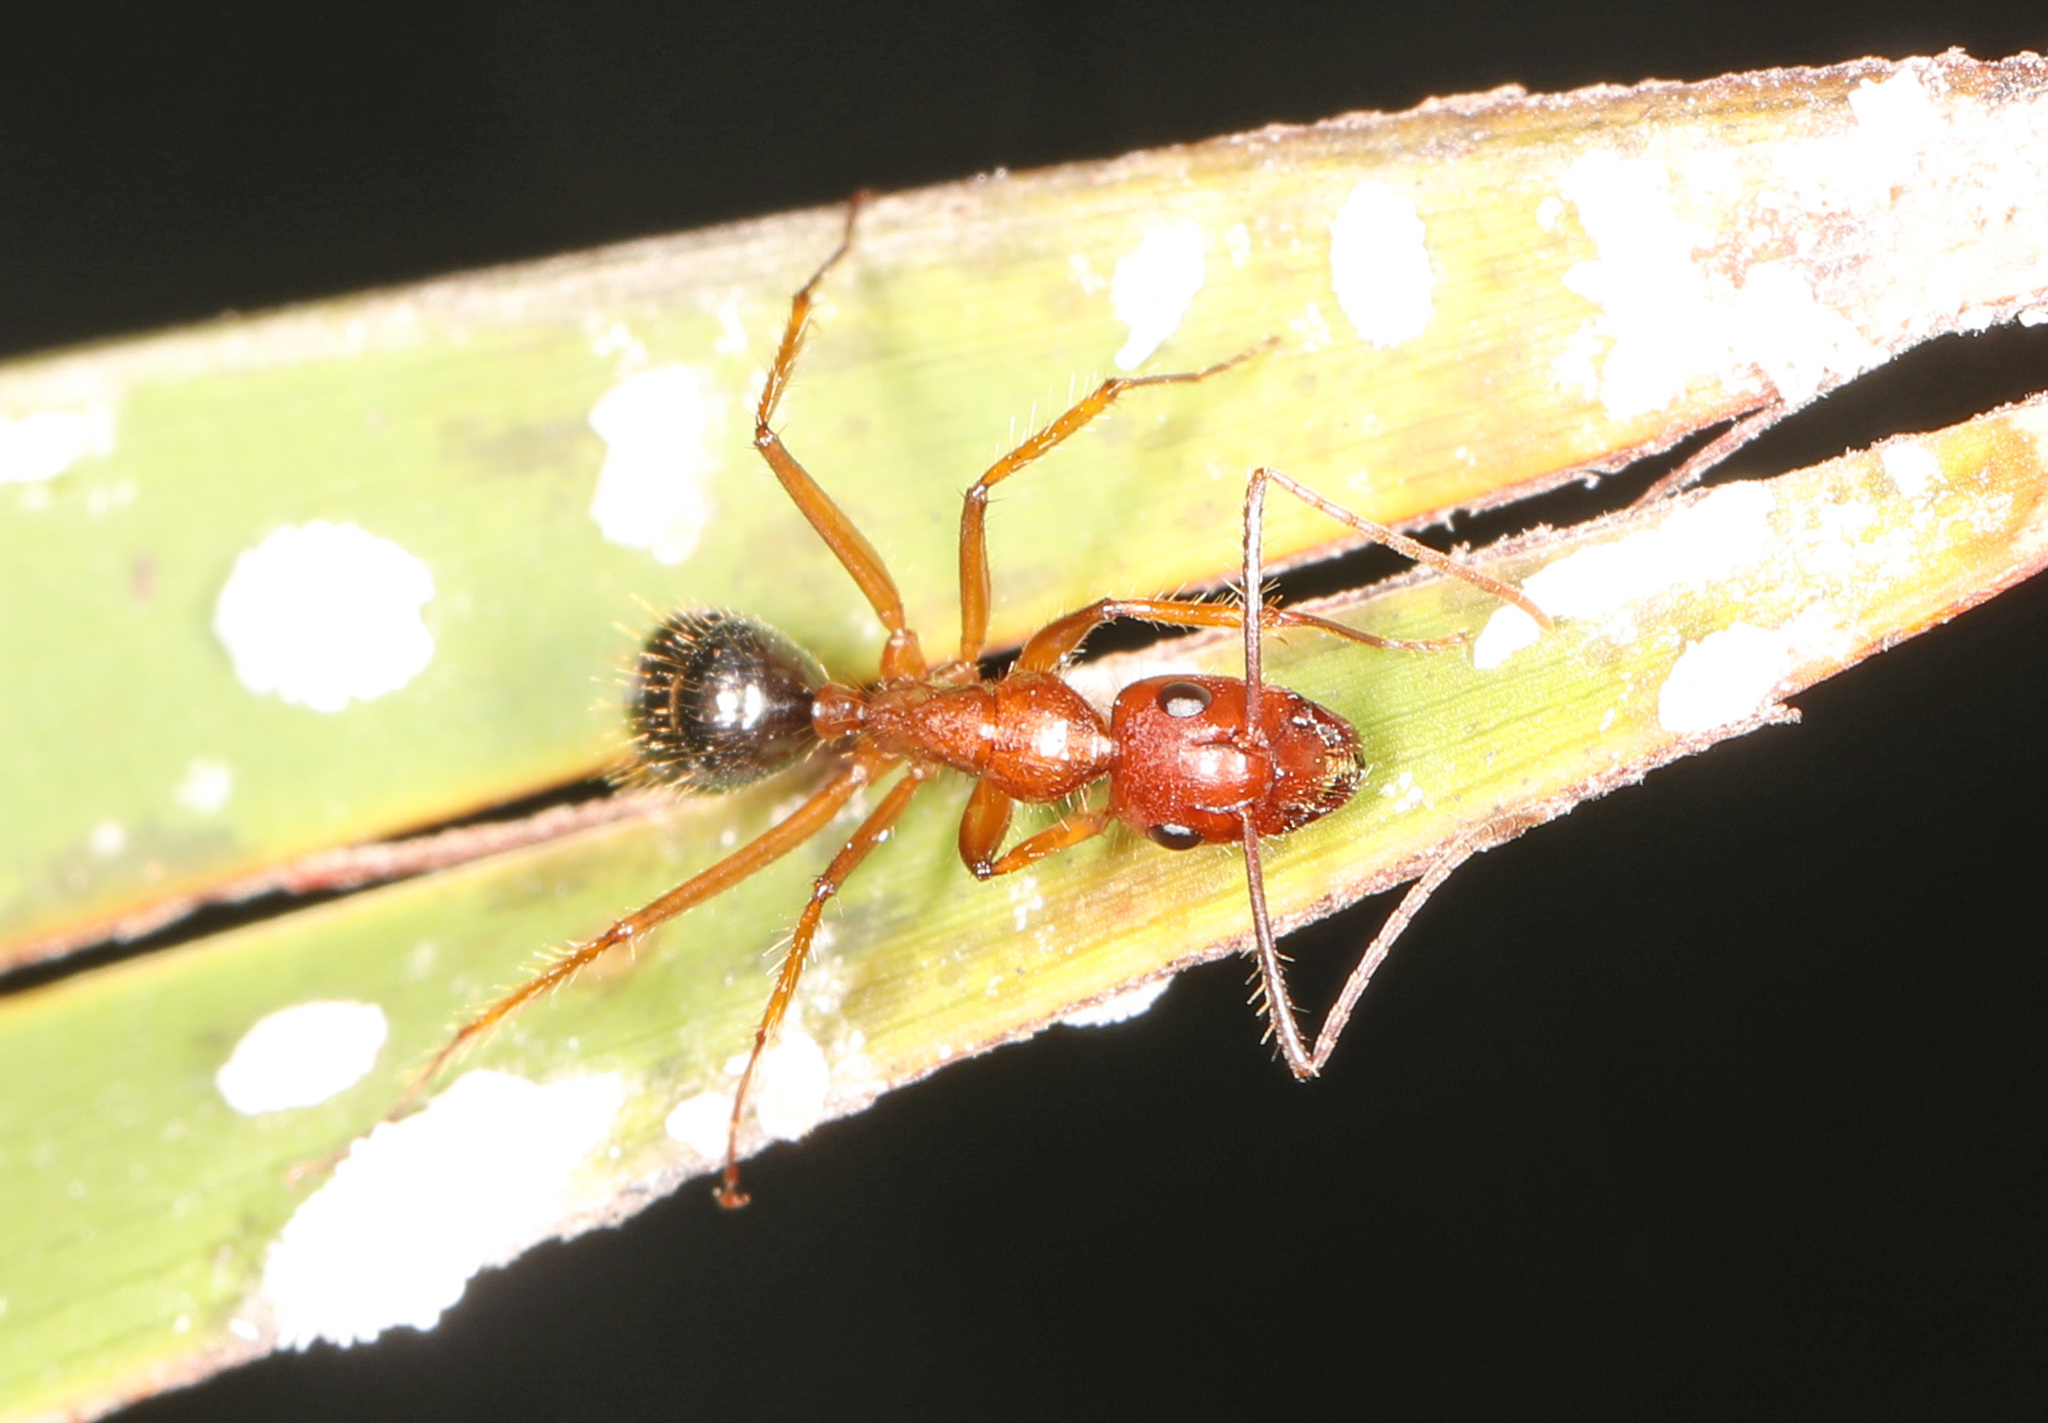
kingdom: Animalia
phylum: Arthropoda
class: Insecta
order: Hymenoptera
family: Formicidae
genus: Camponotus
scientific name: Camponotus floridanus
